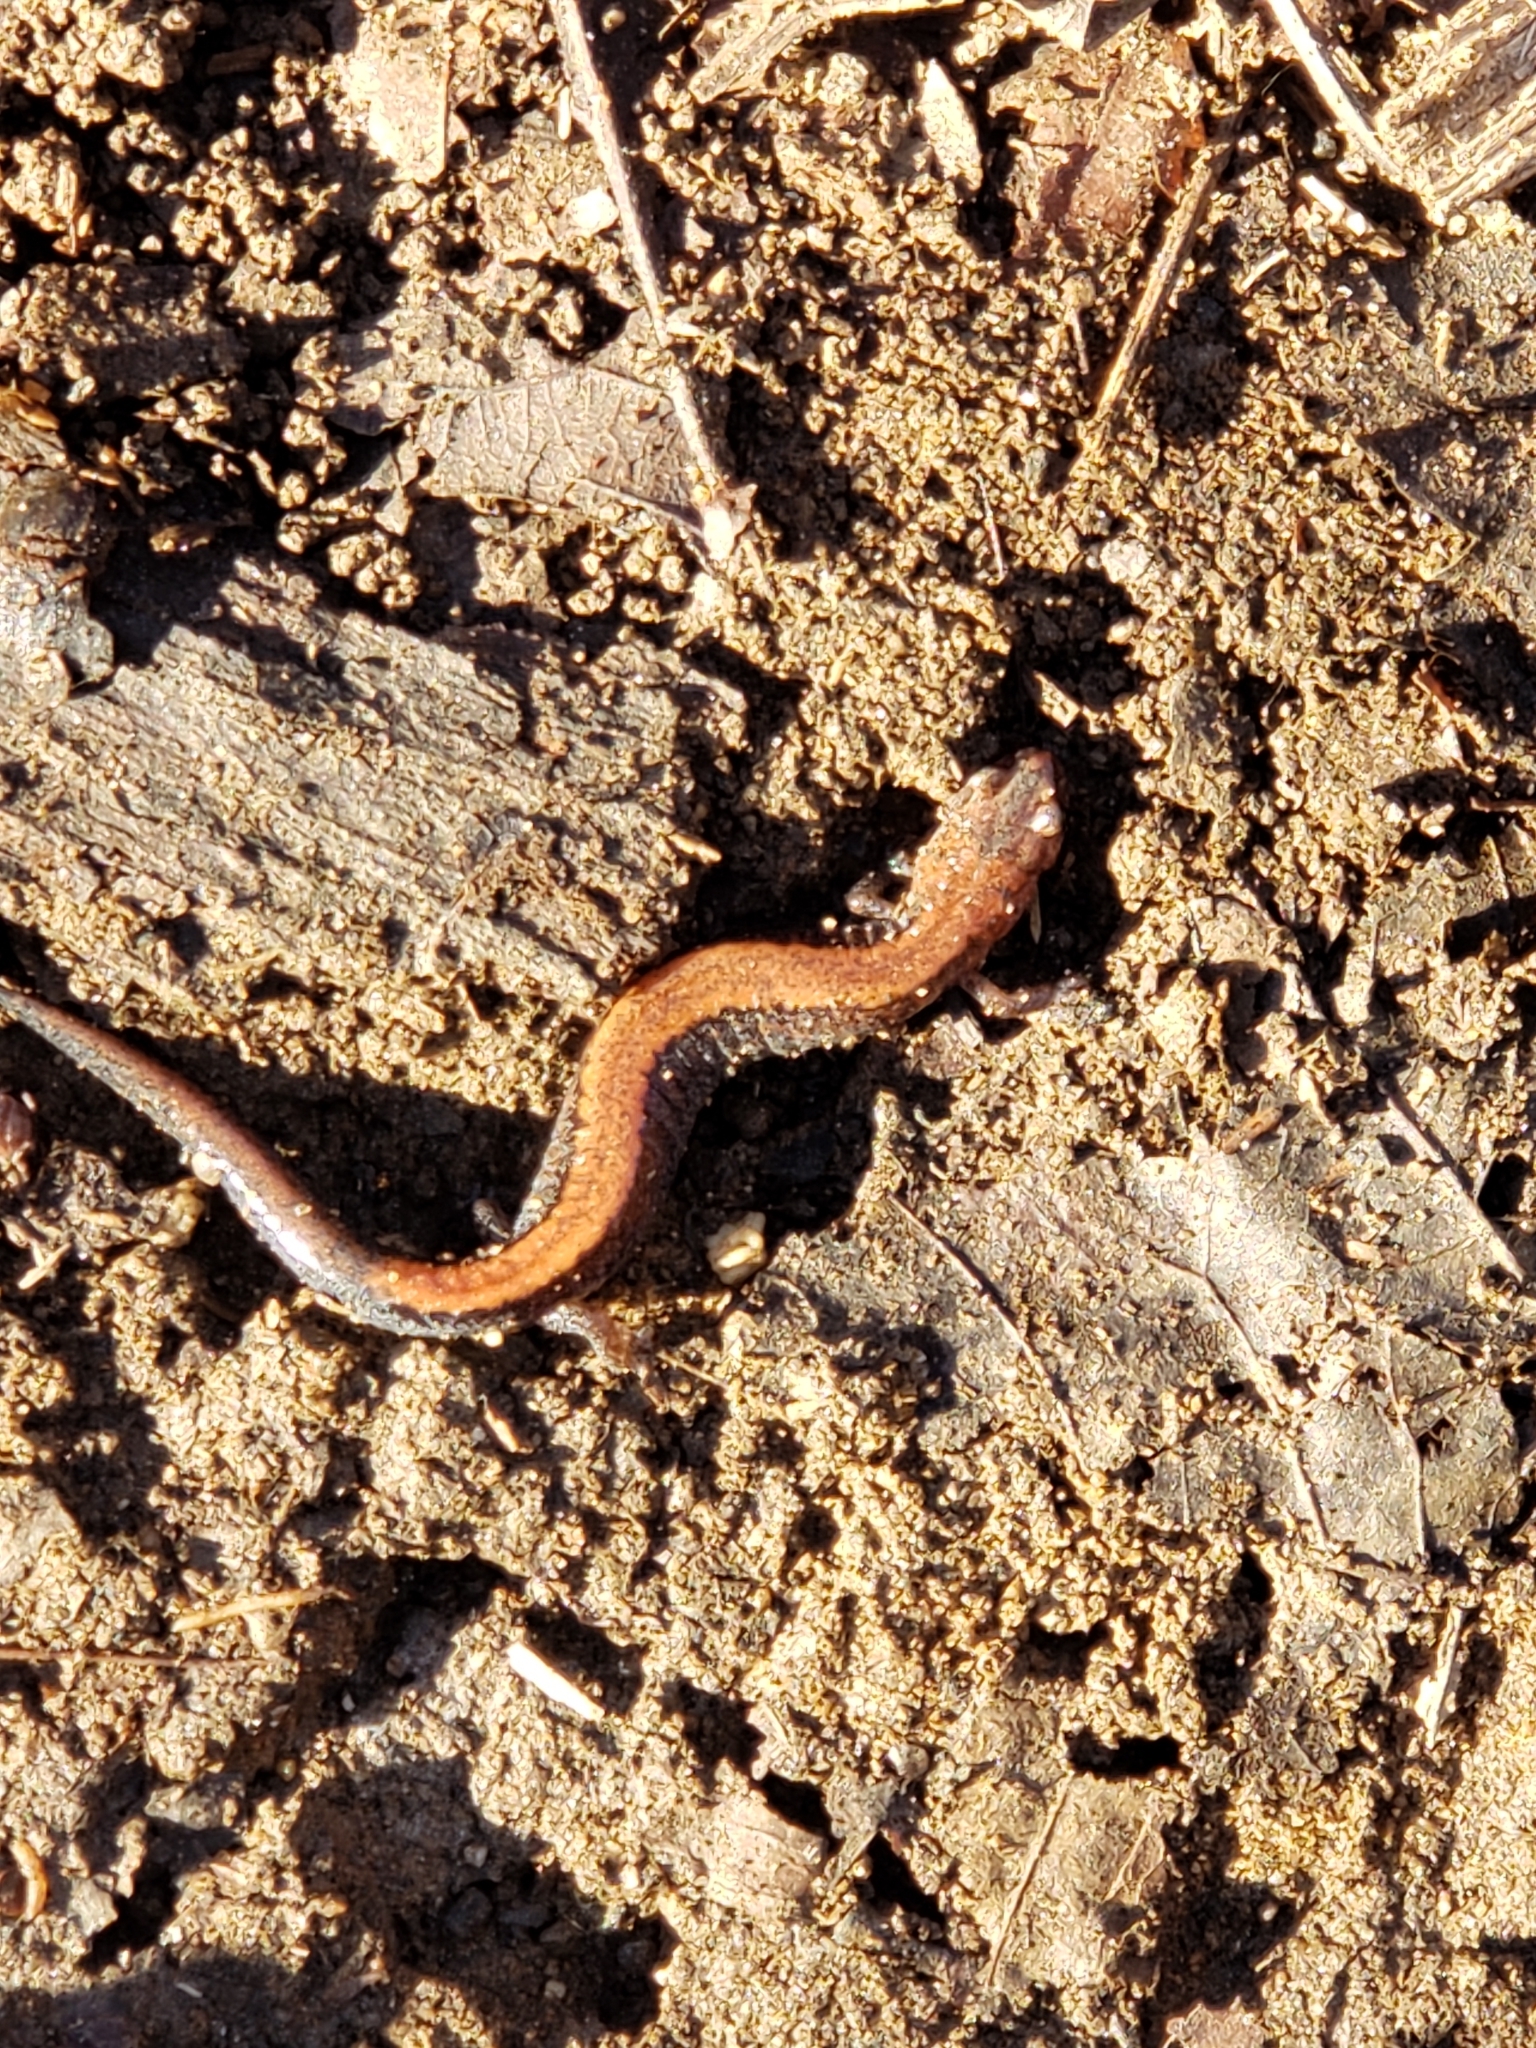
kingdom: Animalia
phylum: Chordata
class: Amphibia
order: Caudata
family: Plethodontidae
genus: Plethodon
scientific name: Plethodon cinereus
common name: Redback salamander
